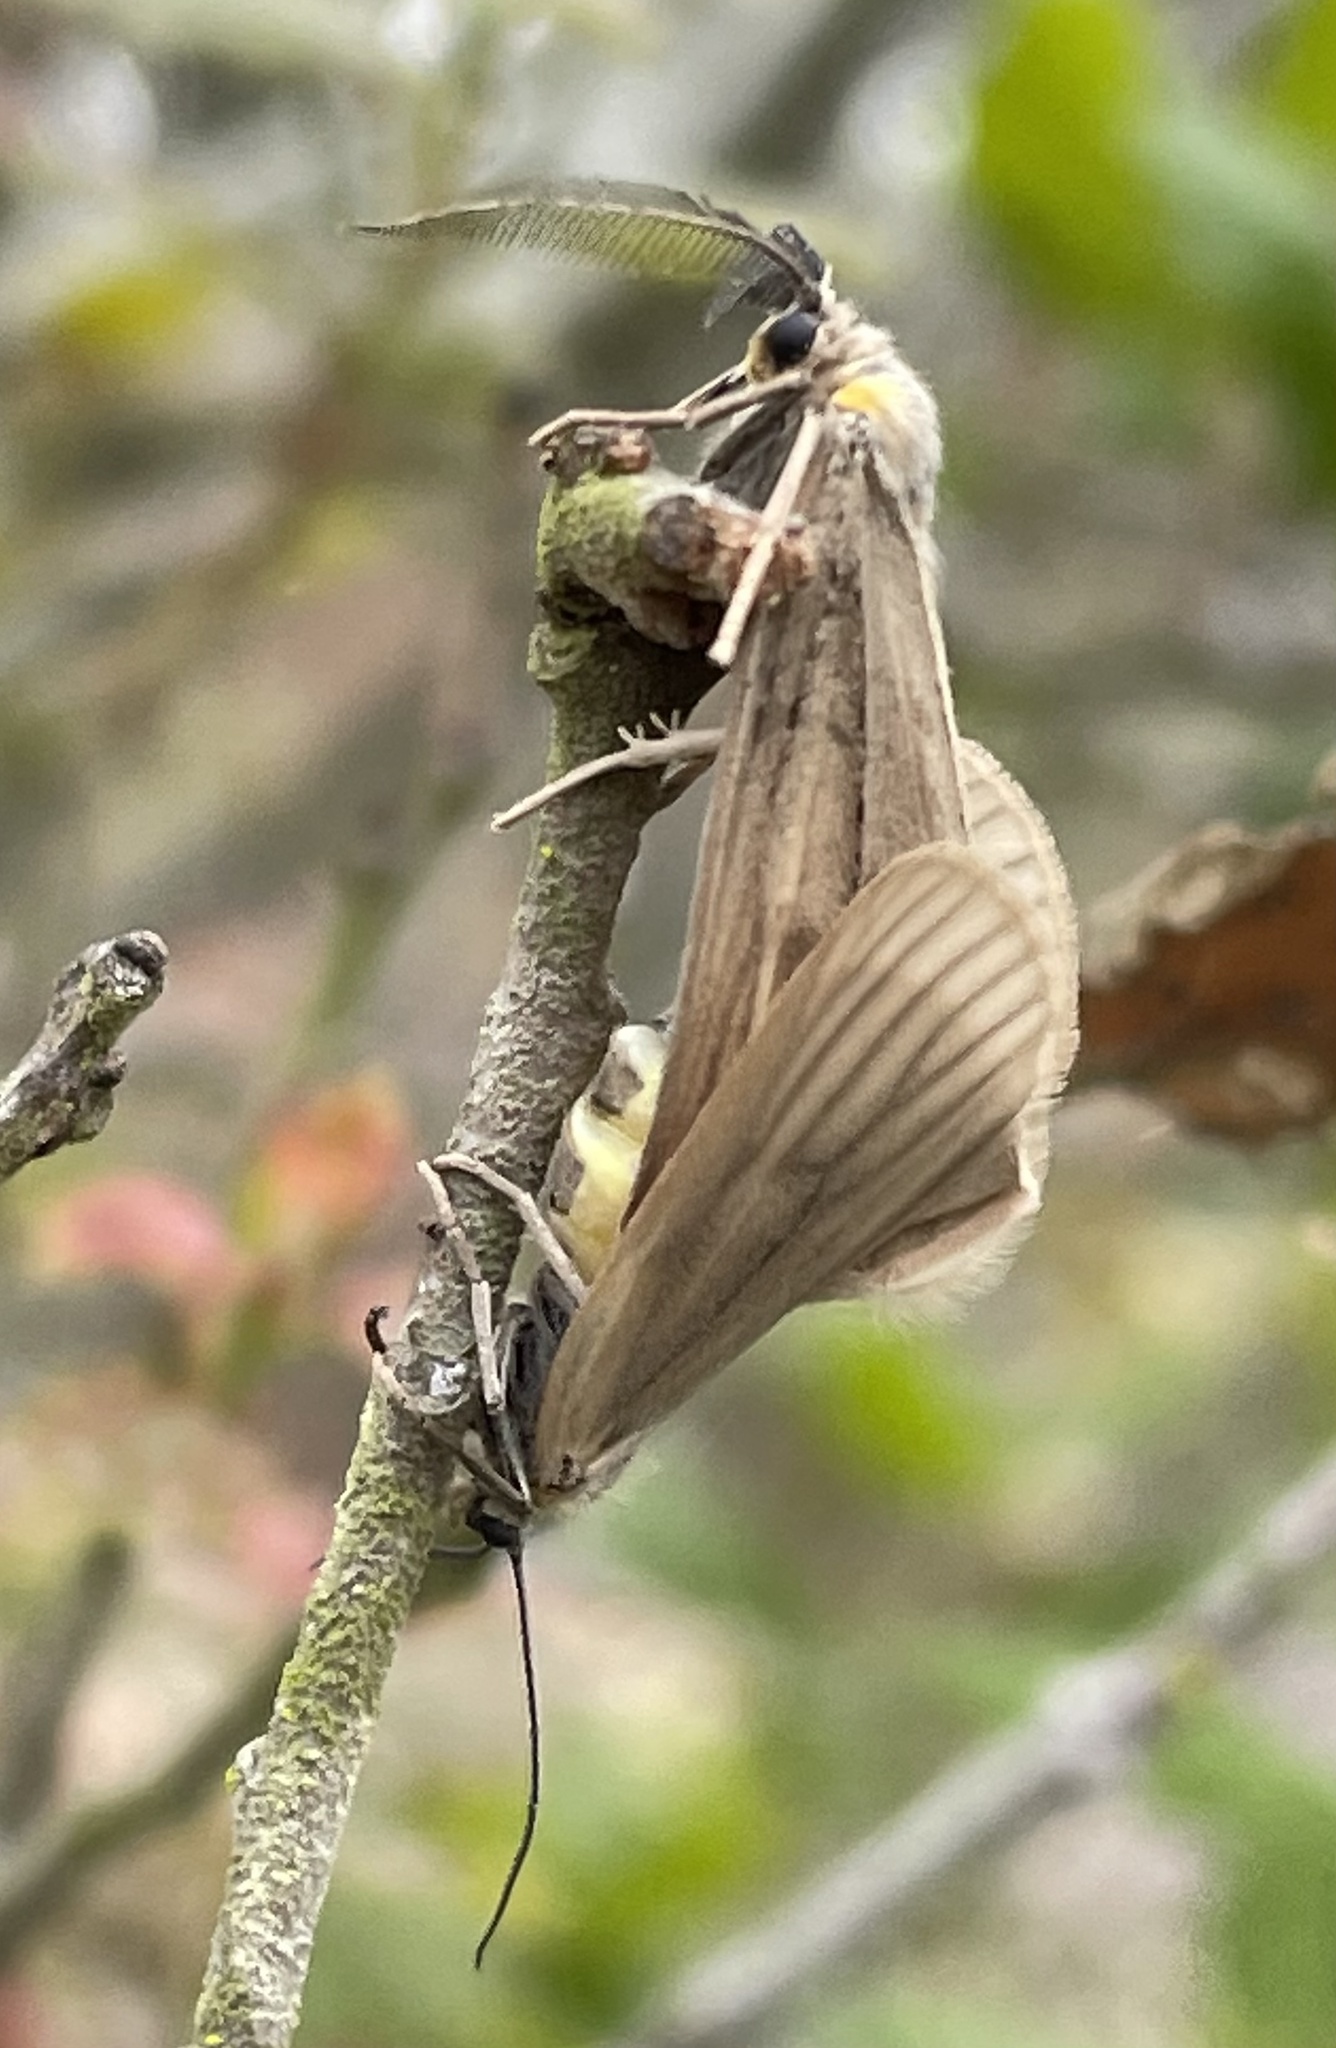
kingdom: Animalia
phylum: Arthropoda
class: Insecta
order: Lepidoptera
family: Notodontidae
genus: Phryganidia
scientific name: Phryganidia californica
